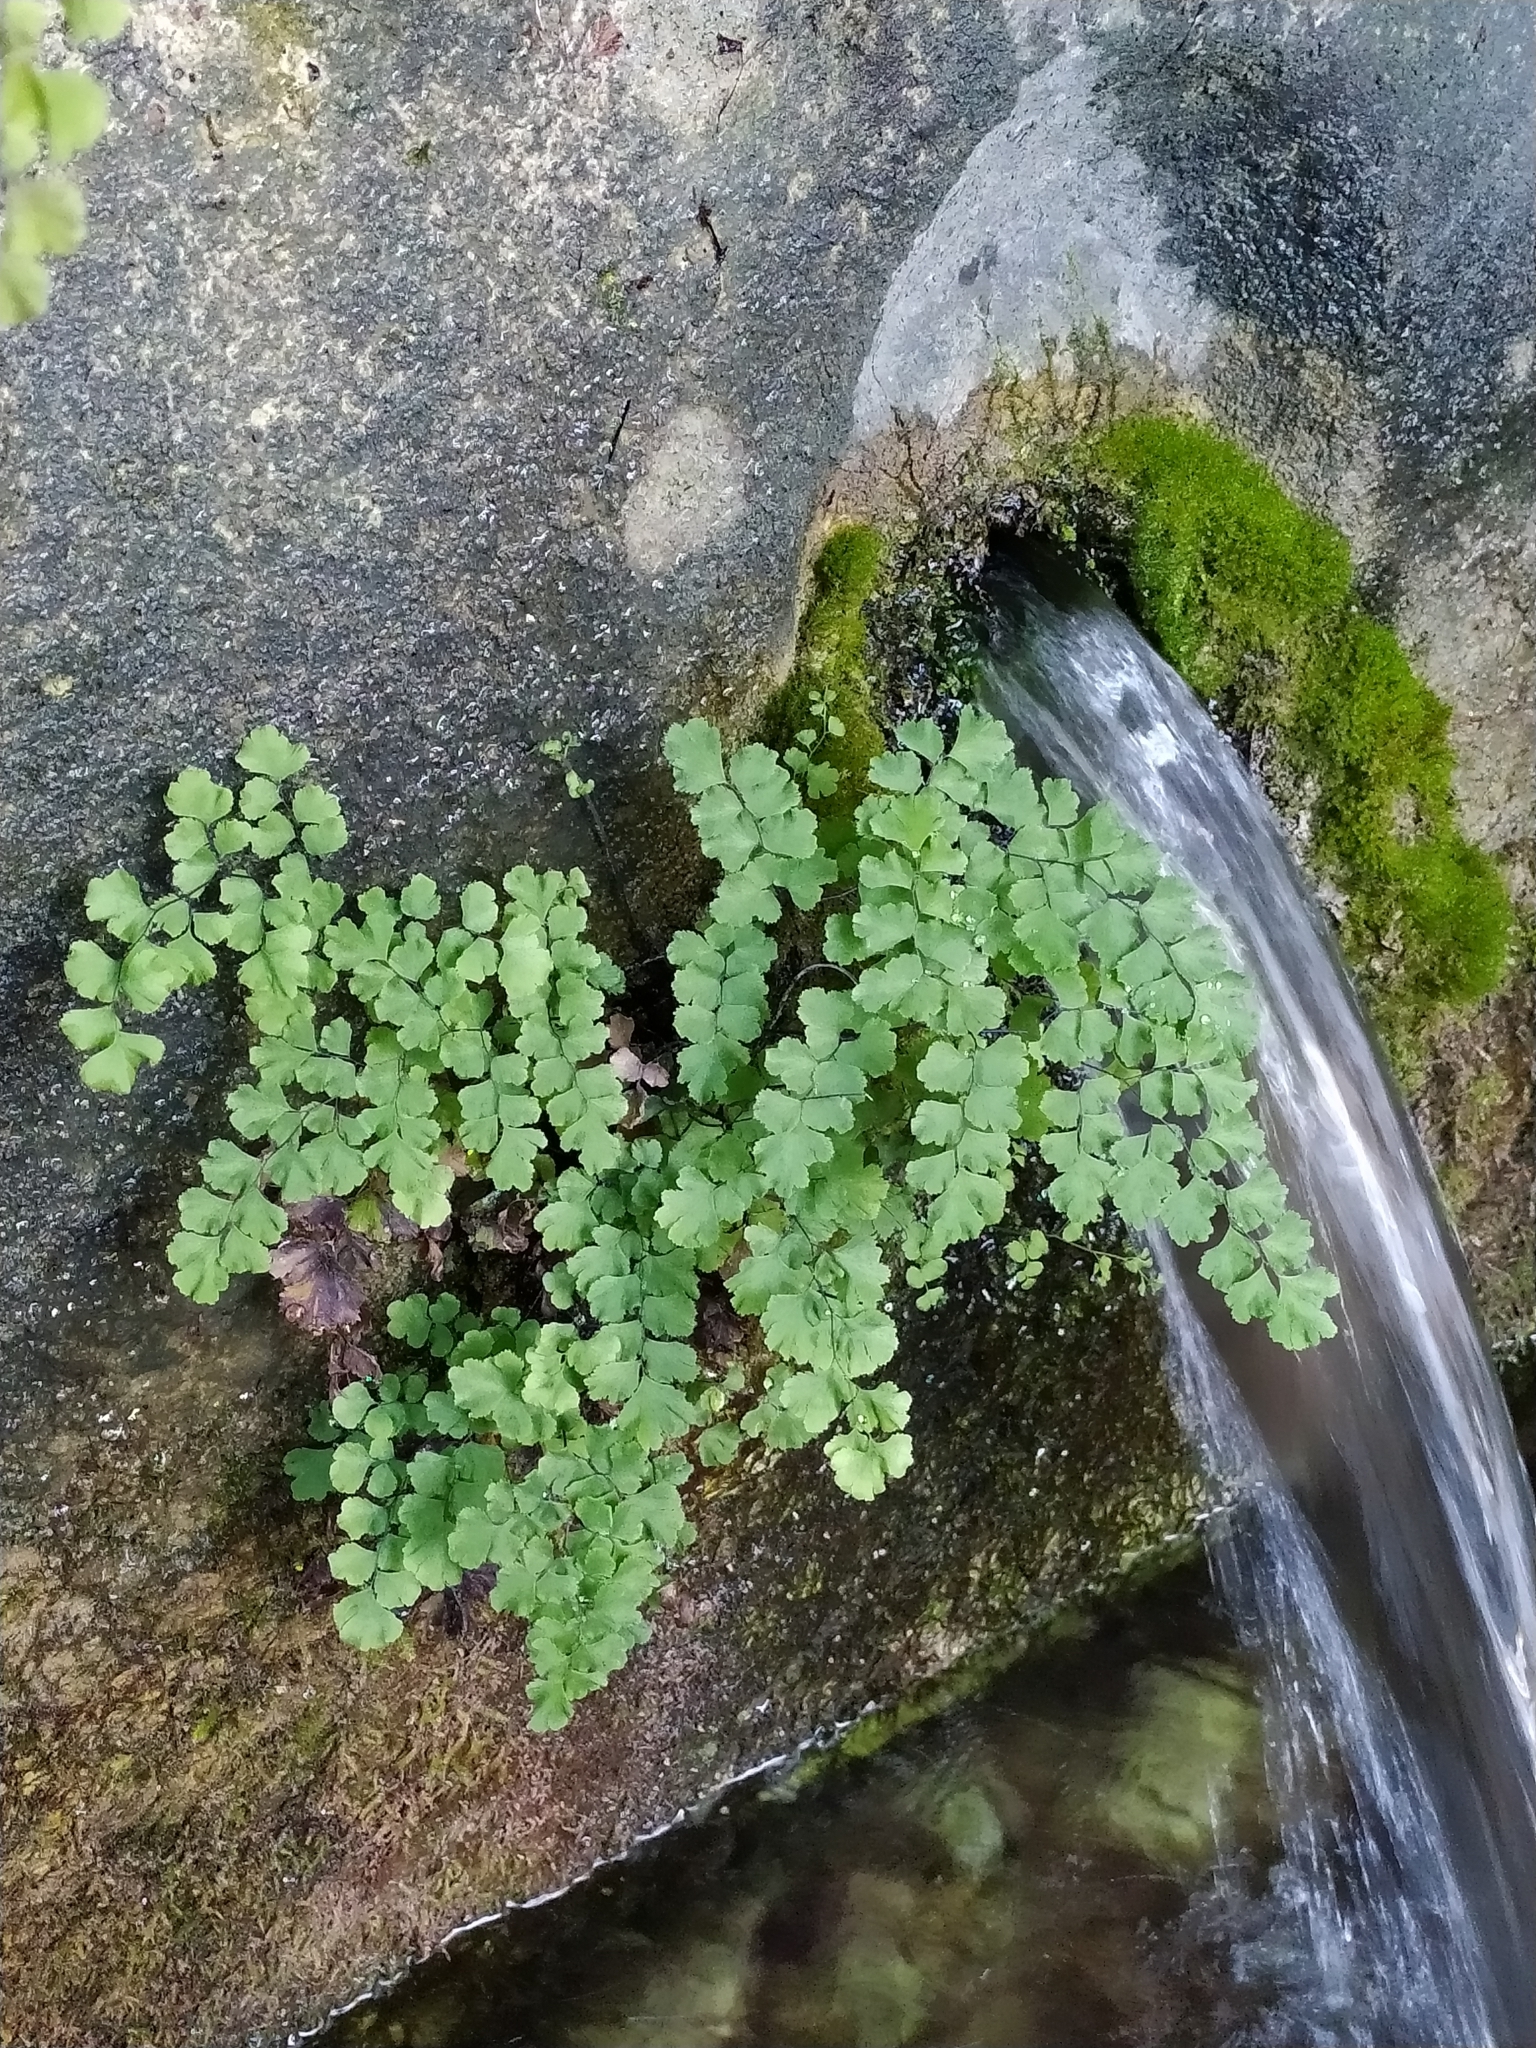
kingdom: Plantae
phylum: Tracheophyta
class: Polypodiopsida
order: Polypodiales
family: Pteridaceae
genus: Adiantum
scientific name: Adiantum capillus-veneris
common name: Maidenhair fern
